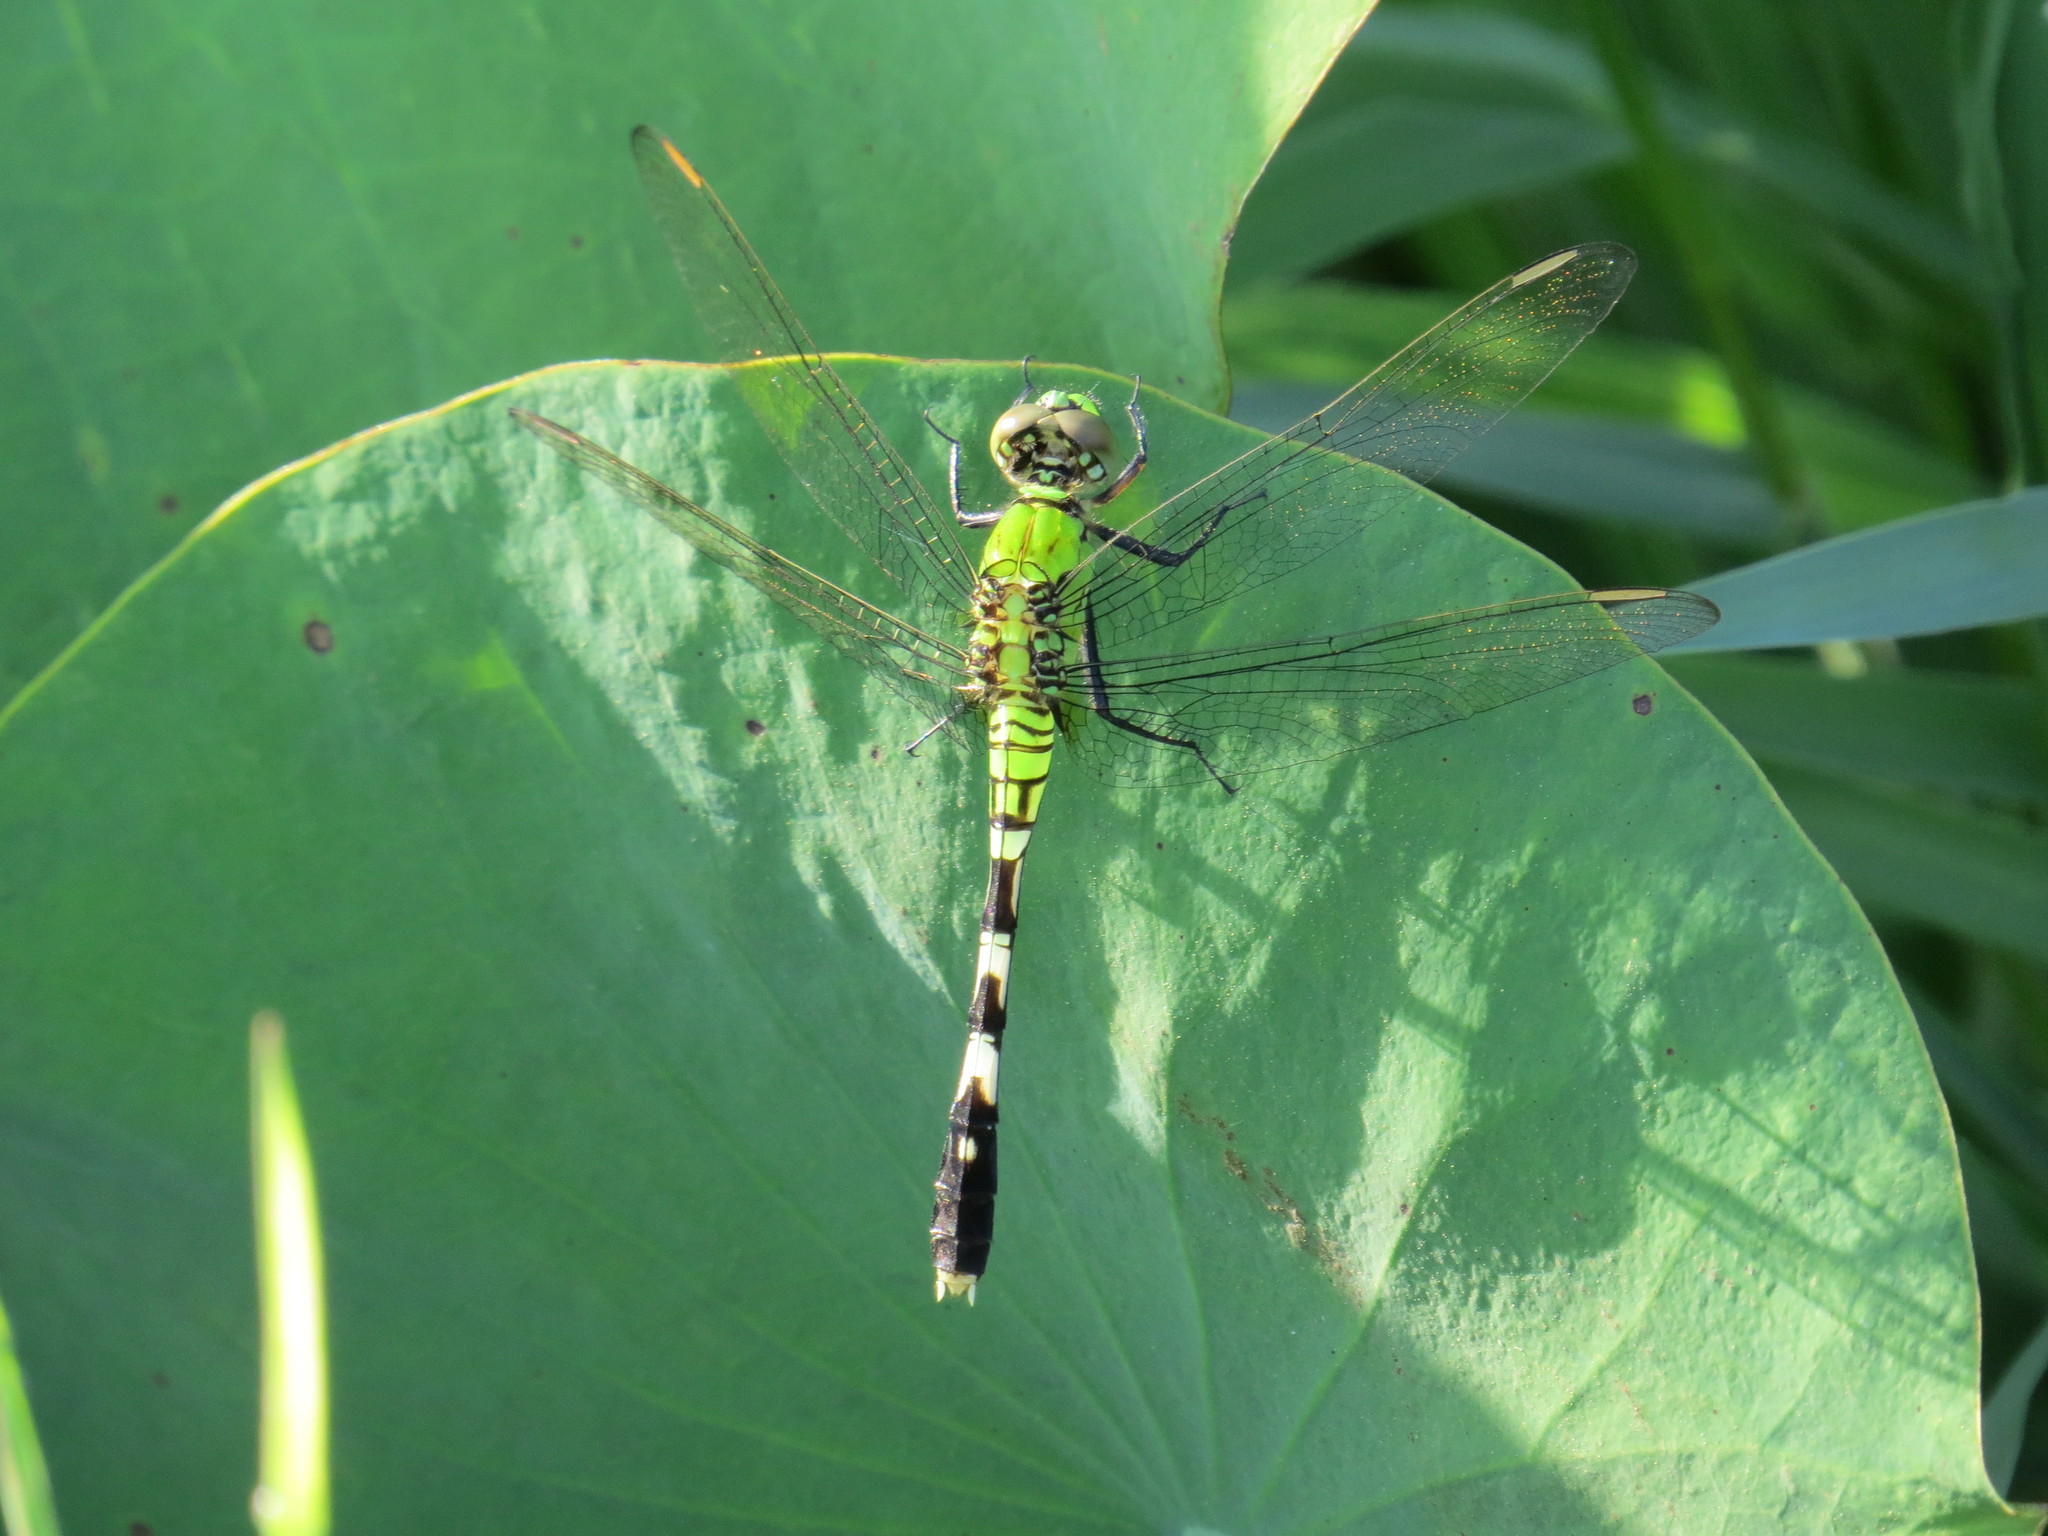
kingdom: Animalia
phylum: Arthropoda
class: Insecta
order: Odonata
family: Libellulidae
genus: Erythemis
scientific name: Erythemis simplicicollis
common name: Eastern pondhawk
